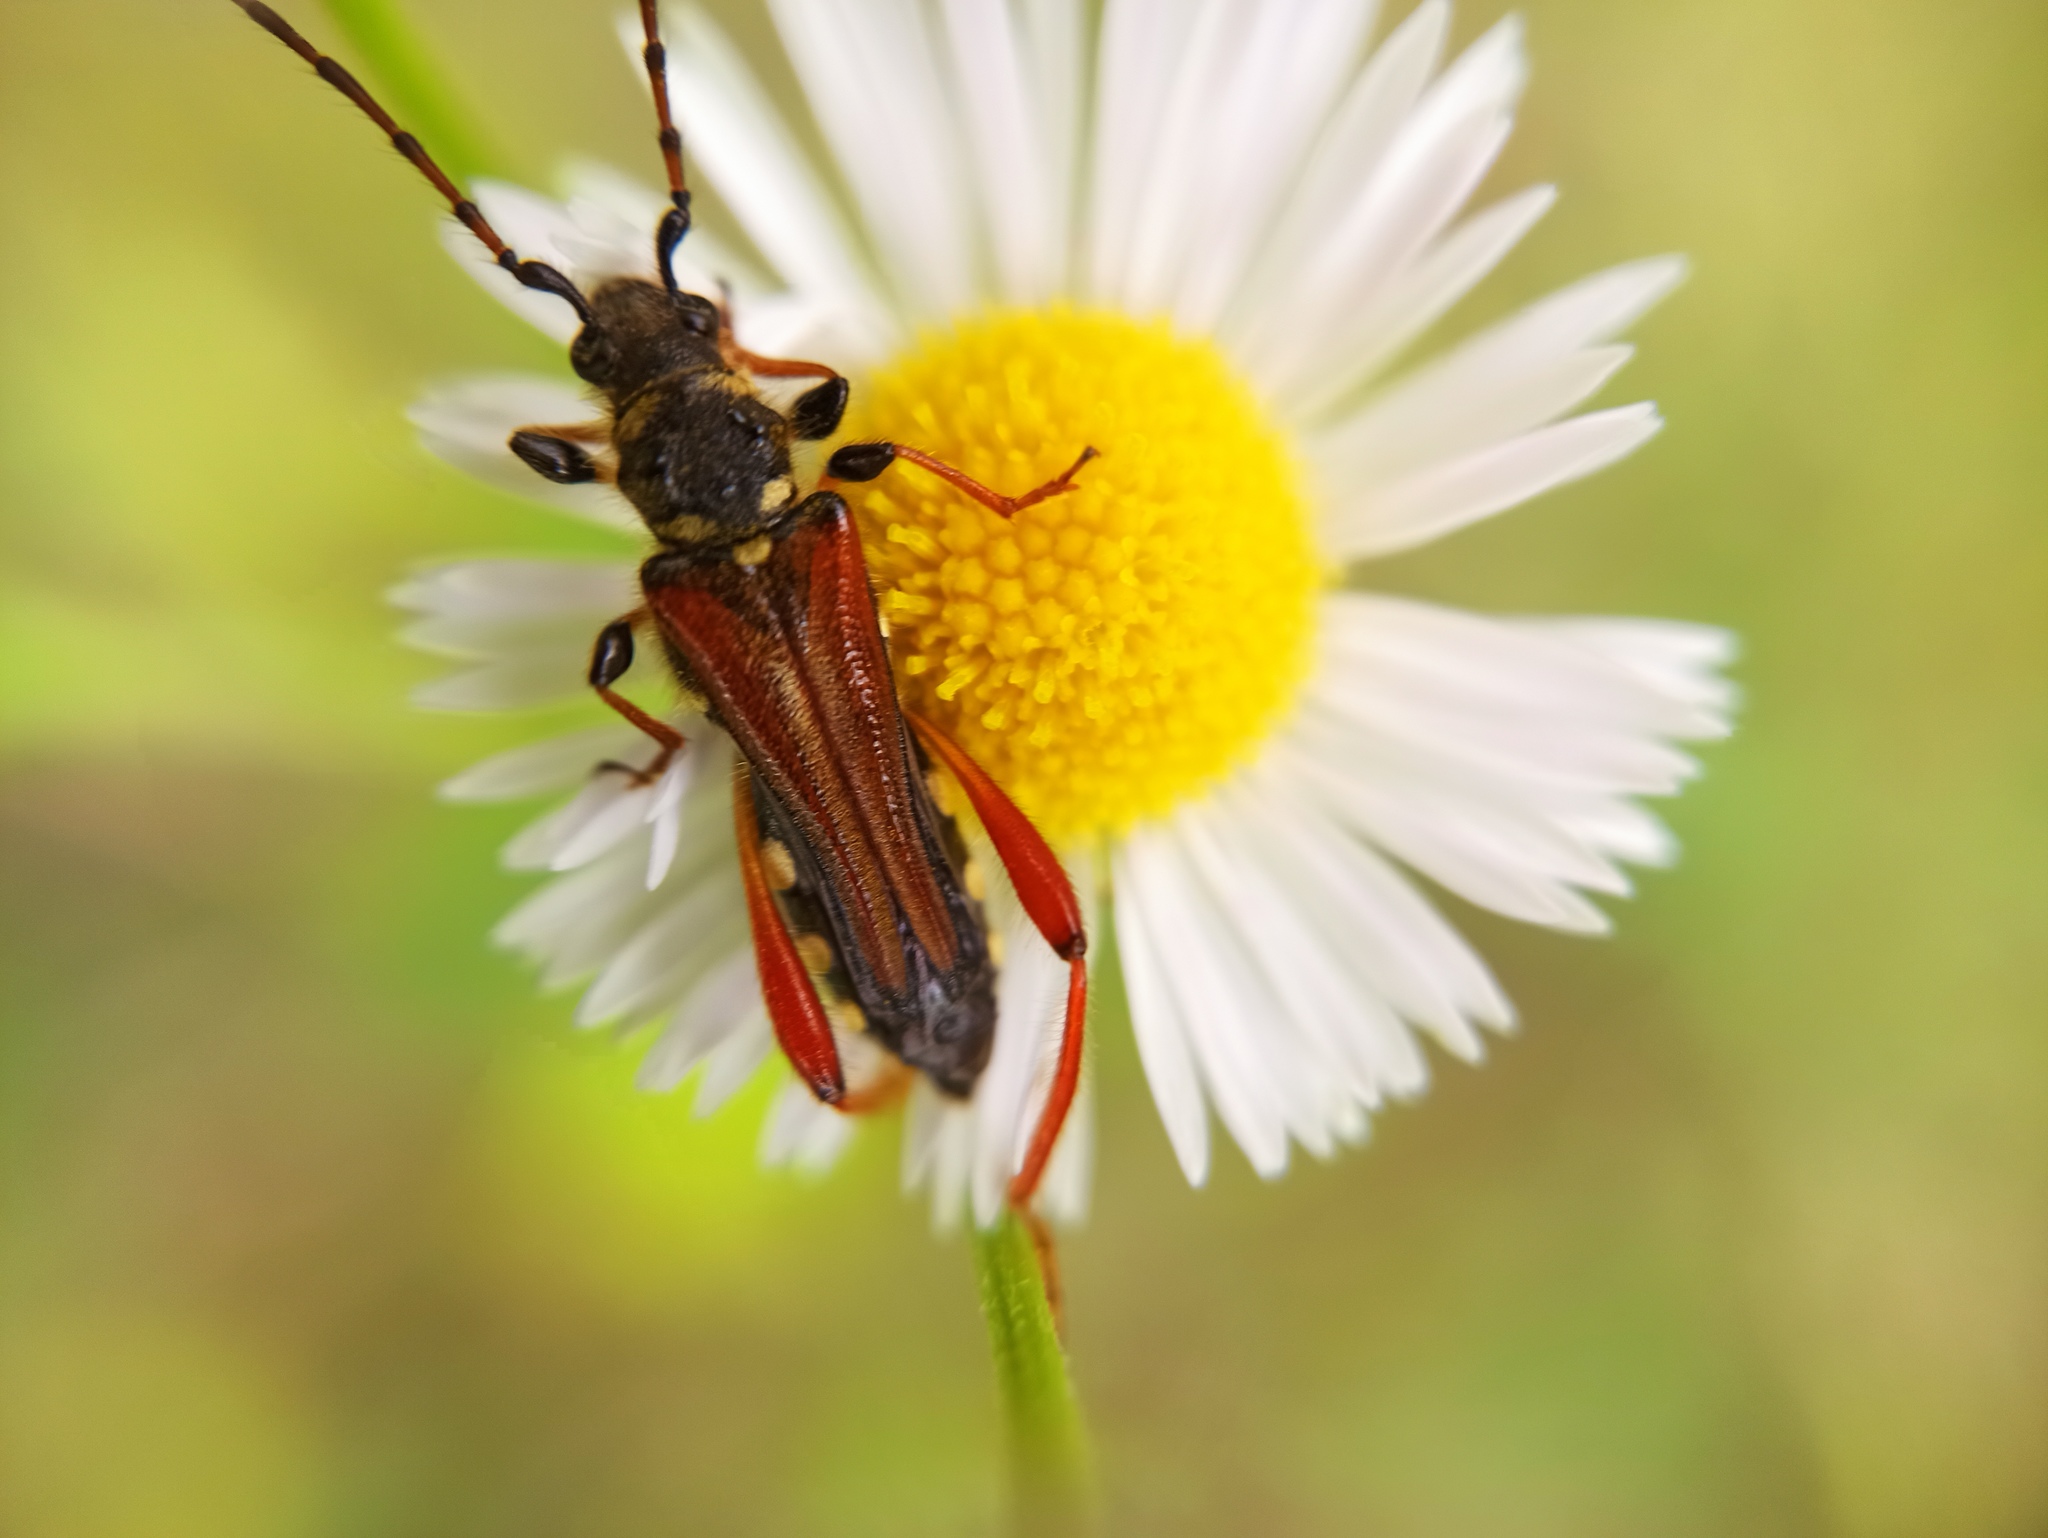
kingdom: Animalia
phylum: Arthropoda
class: Insecta
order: Coleoptera
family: Cerambycidae
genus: Stenopterus
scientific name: Stenopterus rufus
